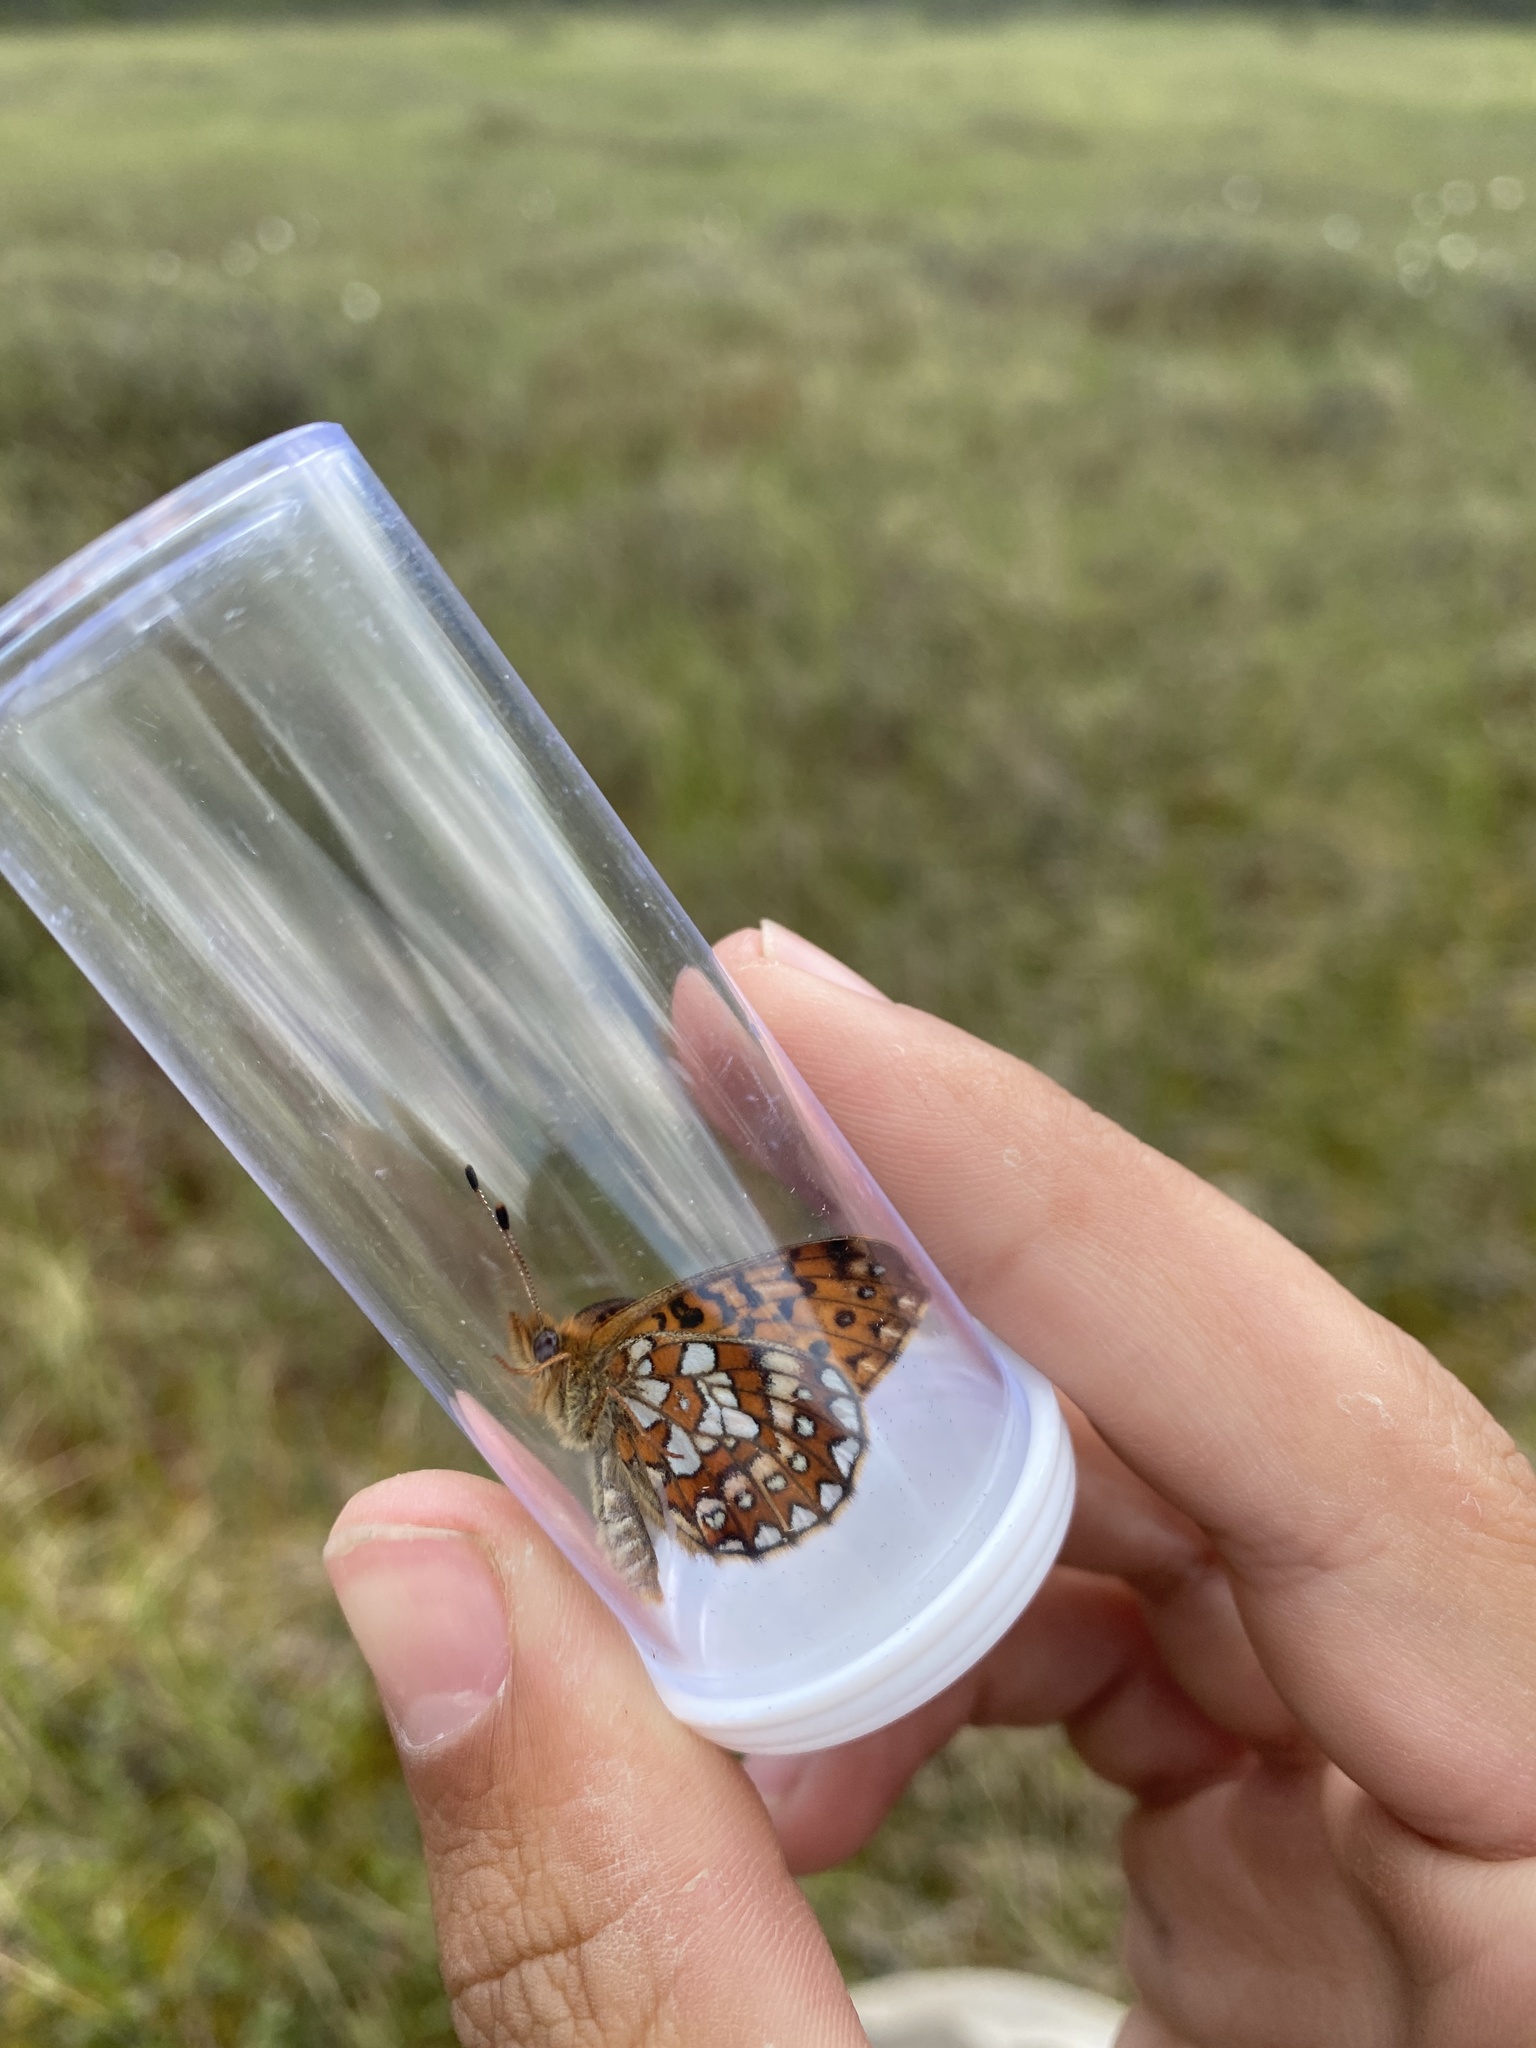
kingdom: Animalia
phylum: Arthropoda
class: Insecta
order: Lepidoptera
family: Nymphalidae
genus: Boloria
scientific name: Boloria eunomia
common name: Bog fritillary
